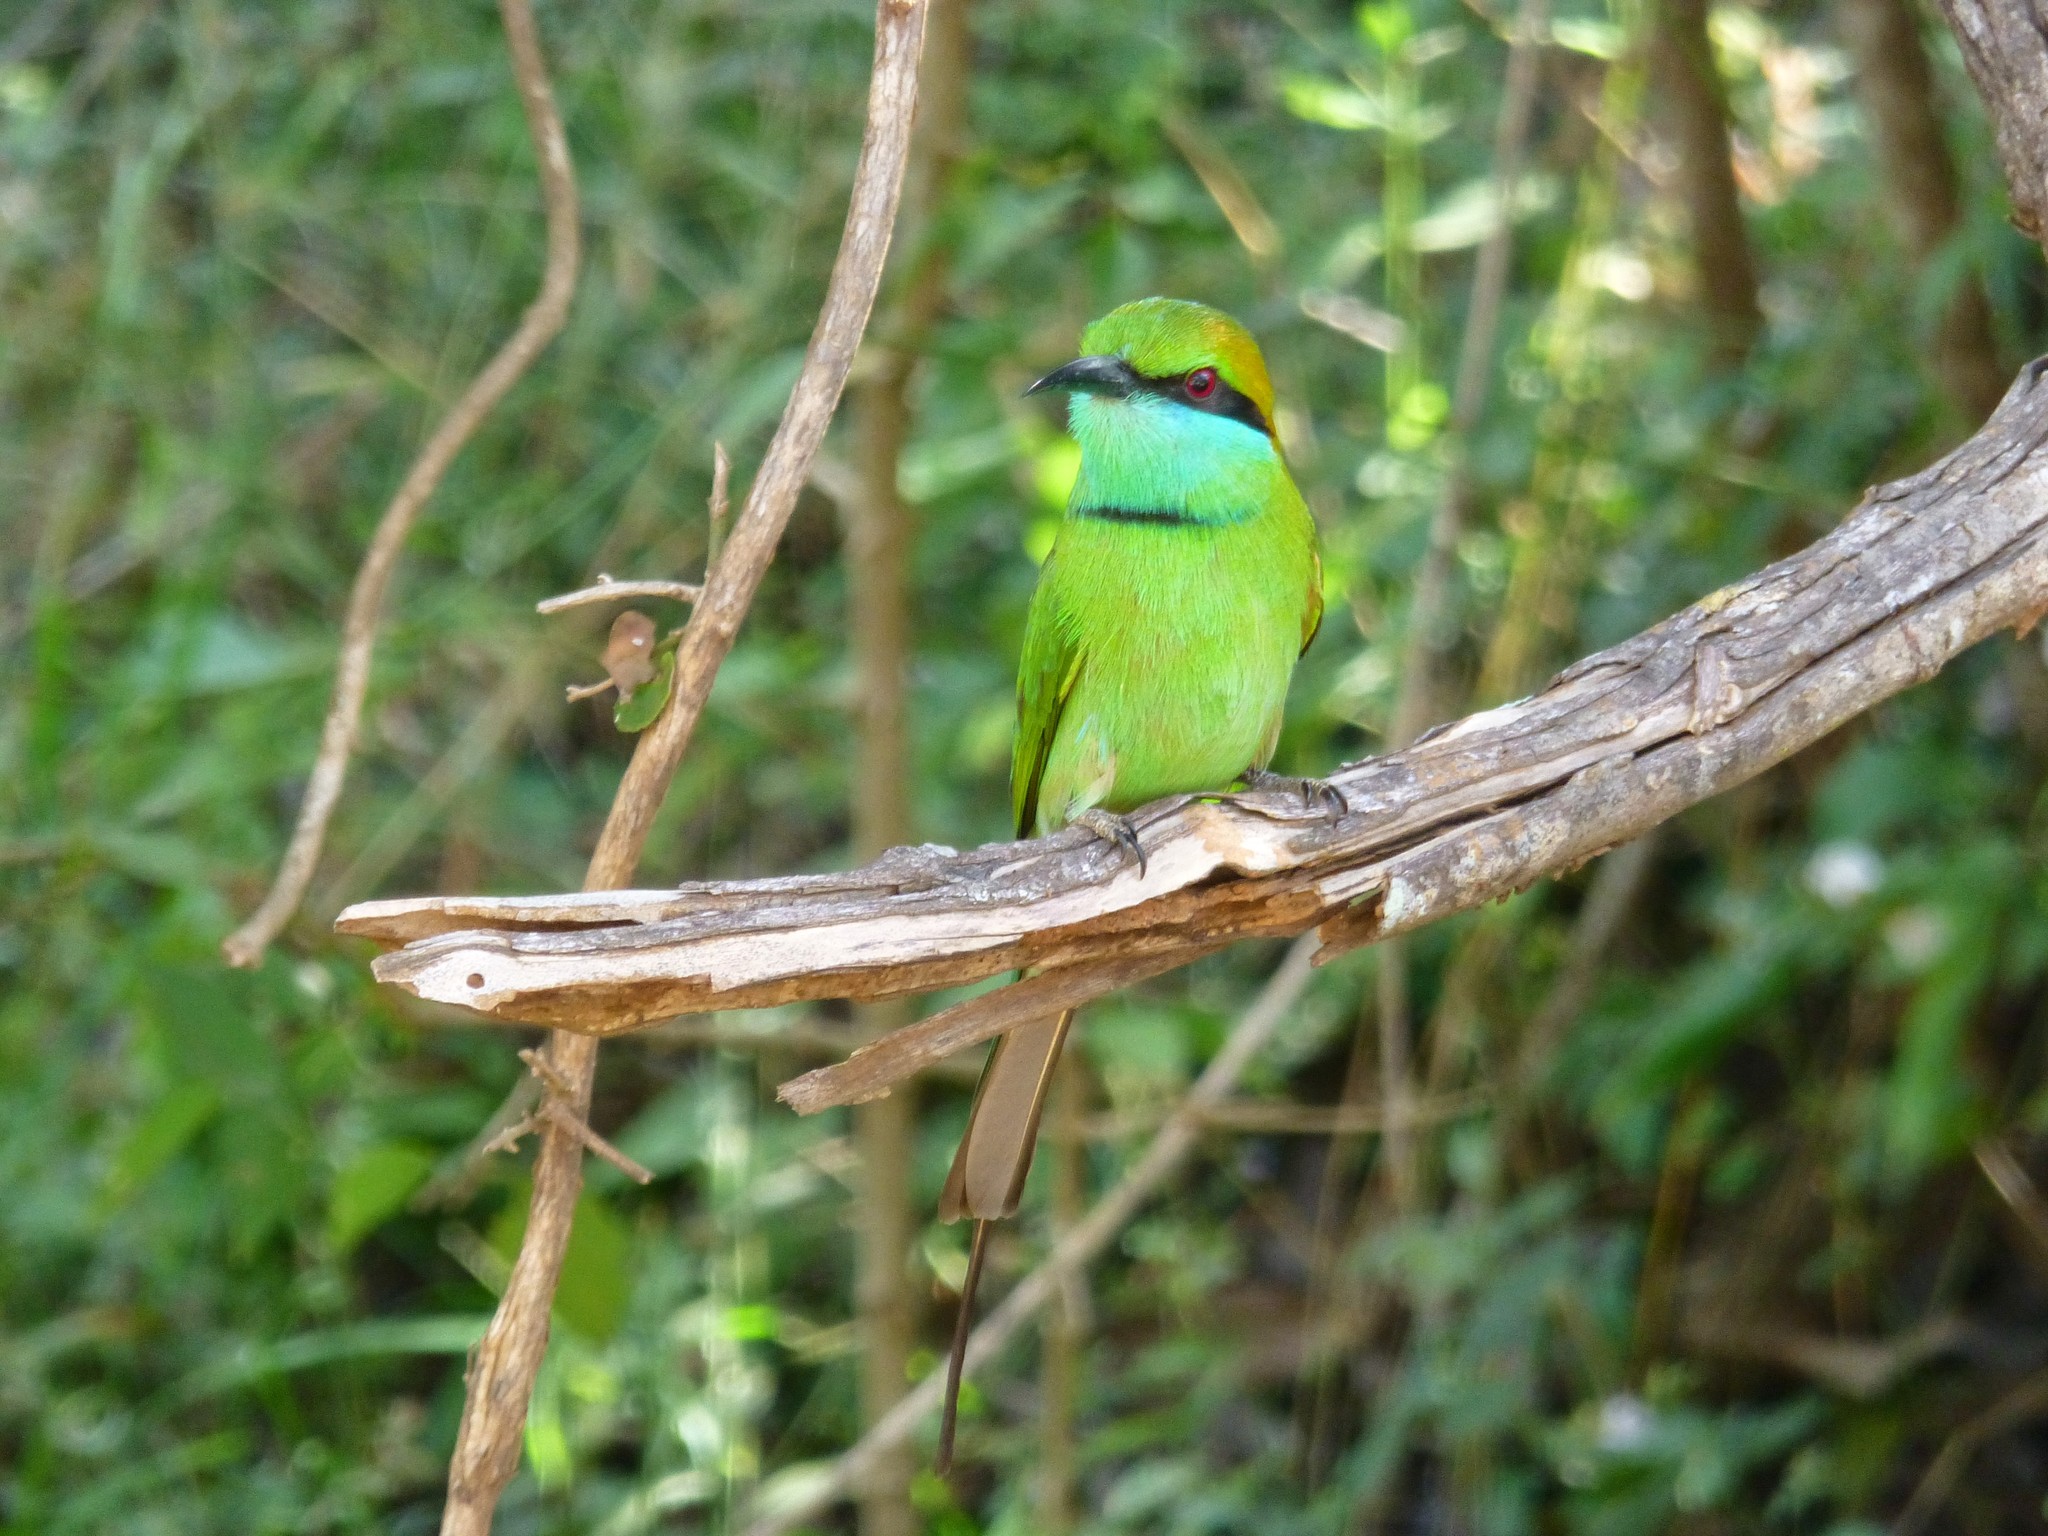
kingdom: Animalia
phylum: Chordata
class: Aves
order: Coraciiformes
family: Meropidae
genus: Merops
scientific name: Merops orientalis
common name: Green bee-eater
